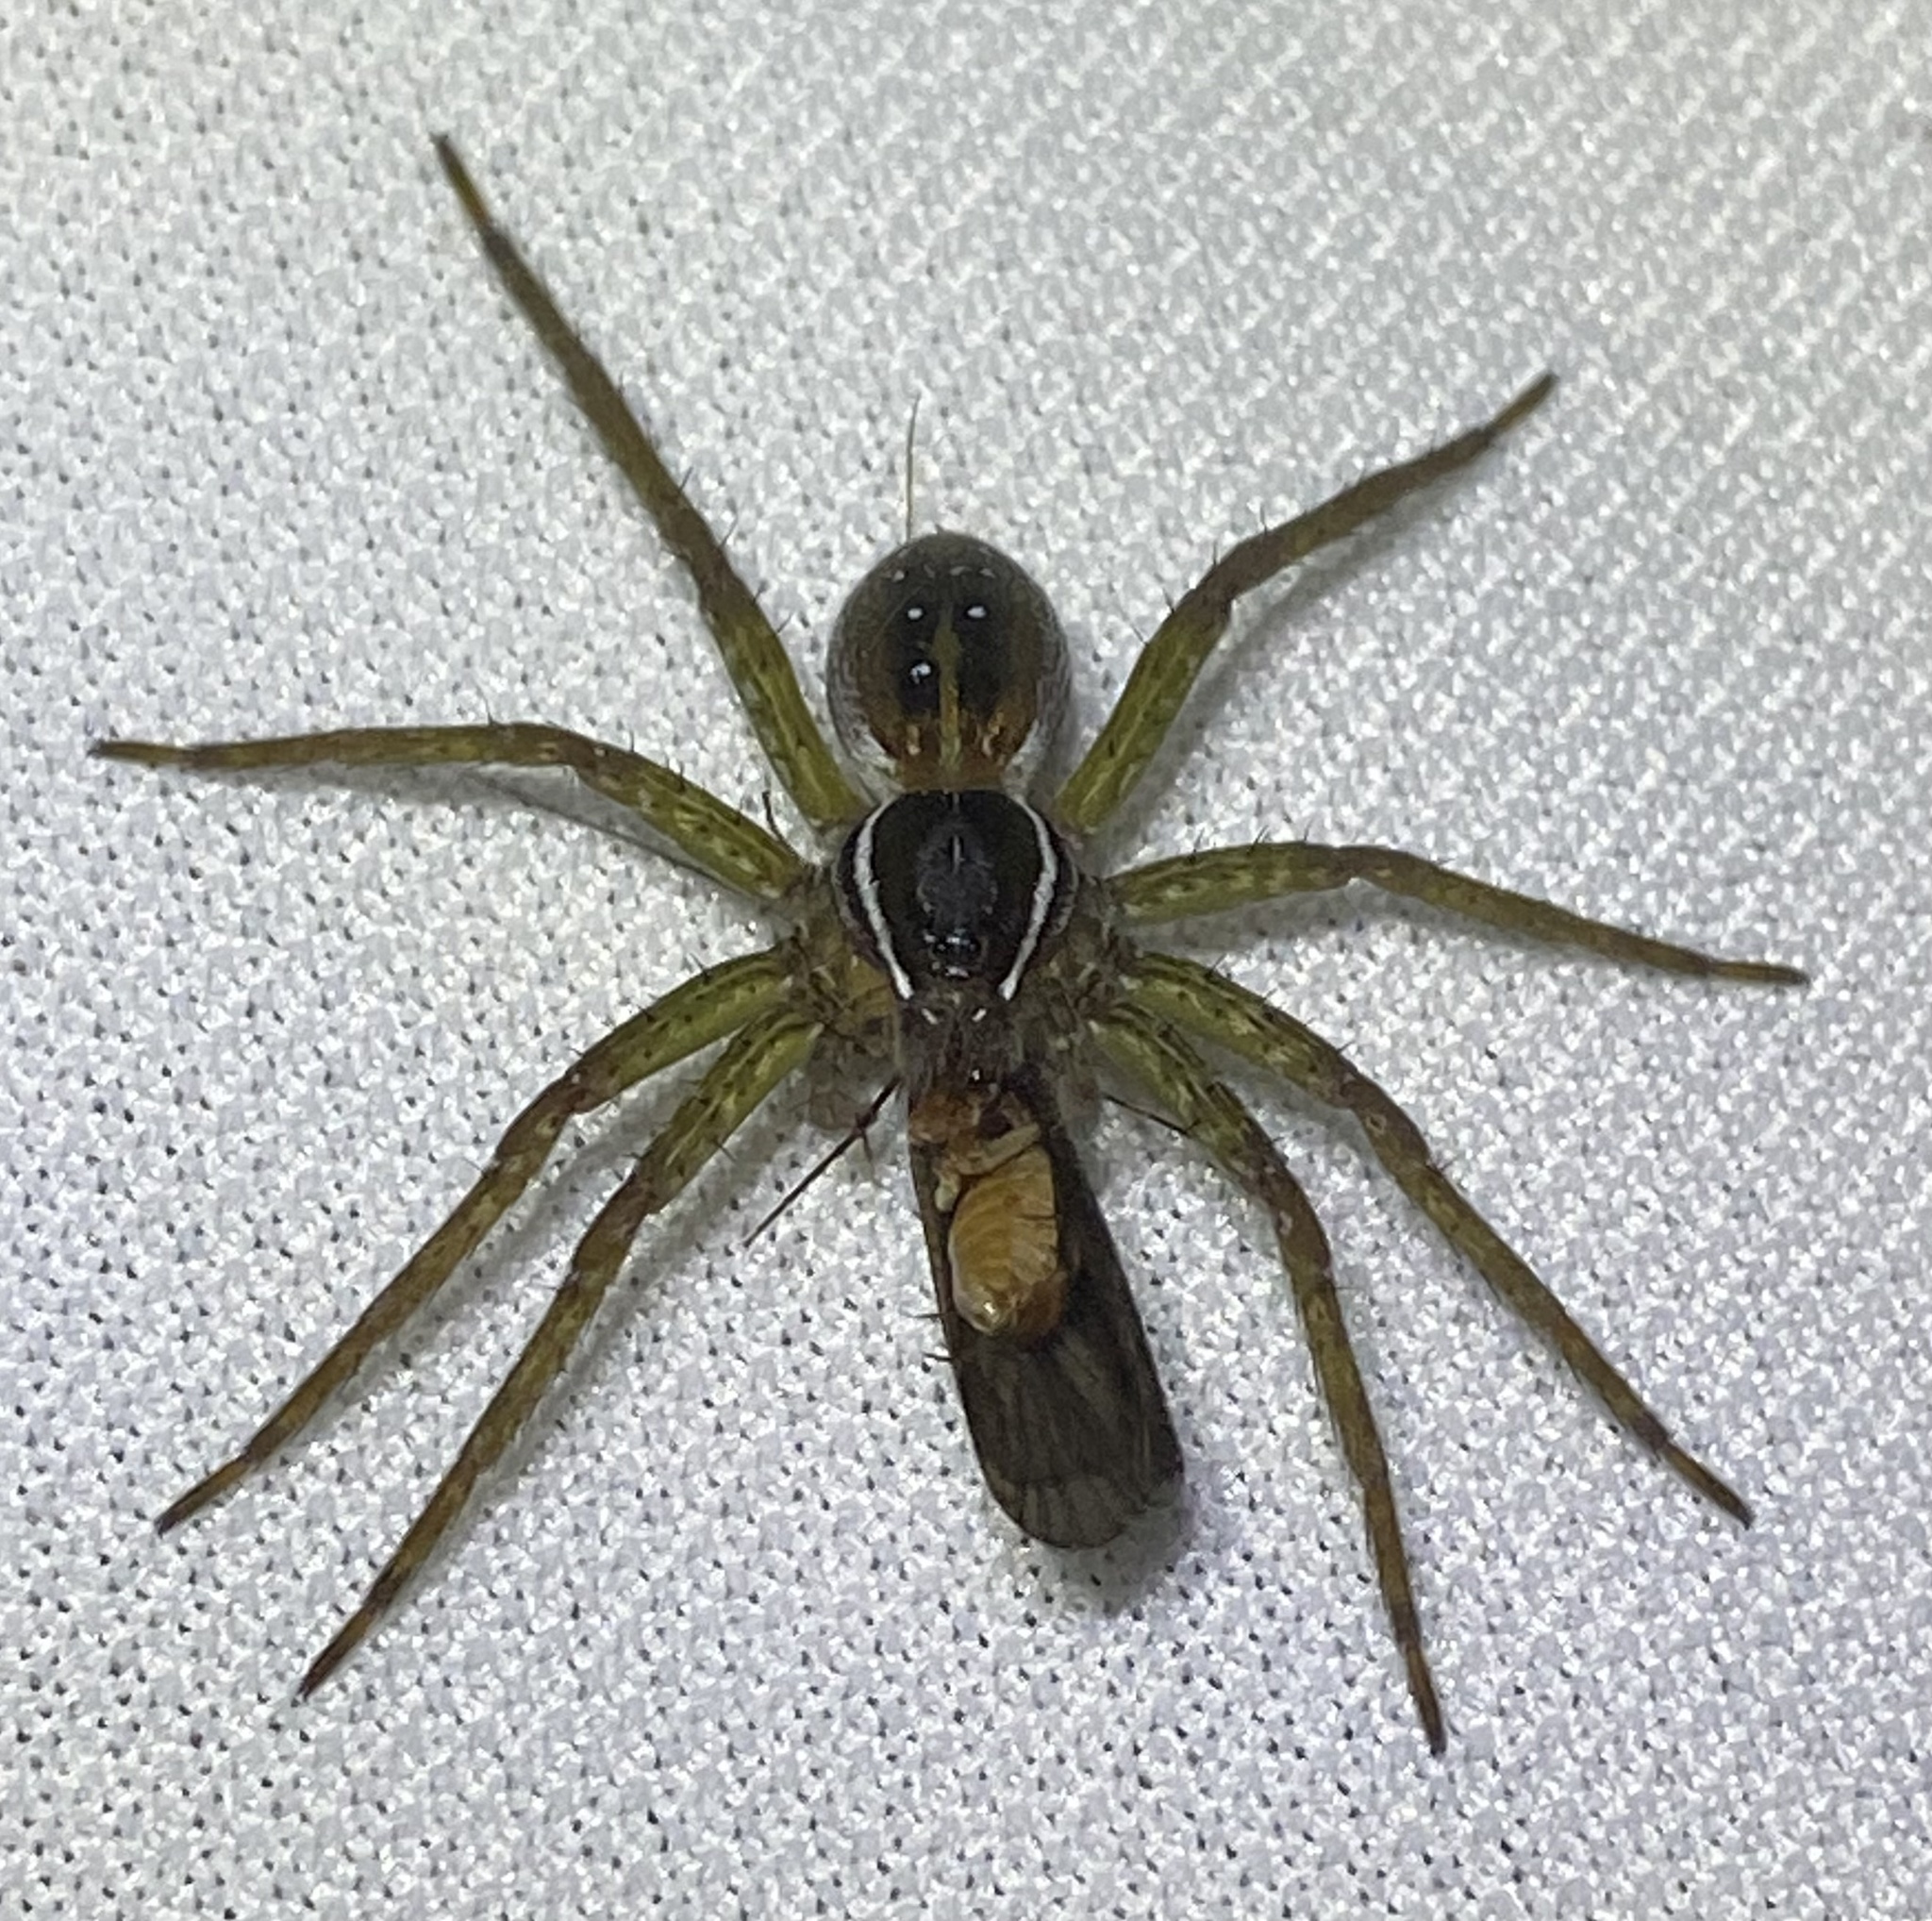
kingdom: Animalia
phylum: Arthropoda
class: Arachnida
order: Araneae
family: Pisauridae
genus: Dolomedes
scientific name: Dolomedes triton
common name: Six-spotted fishing spider
